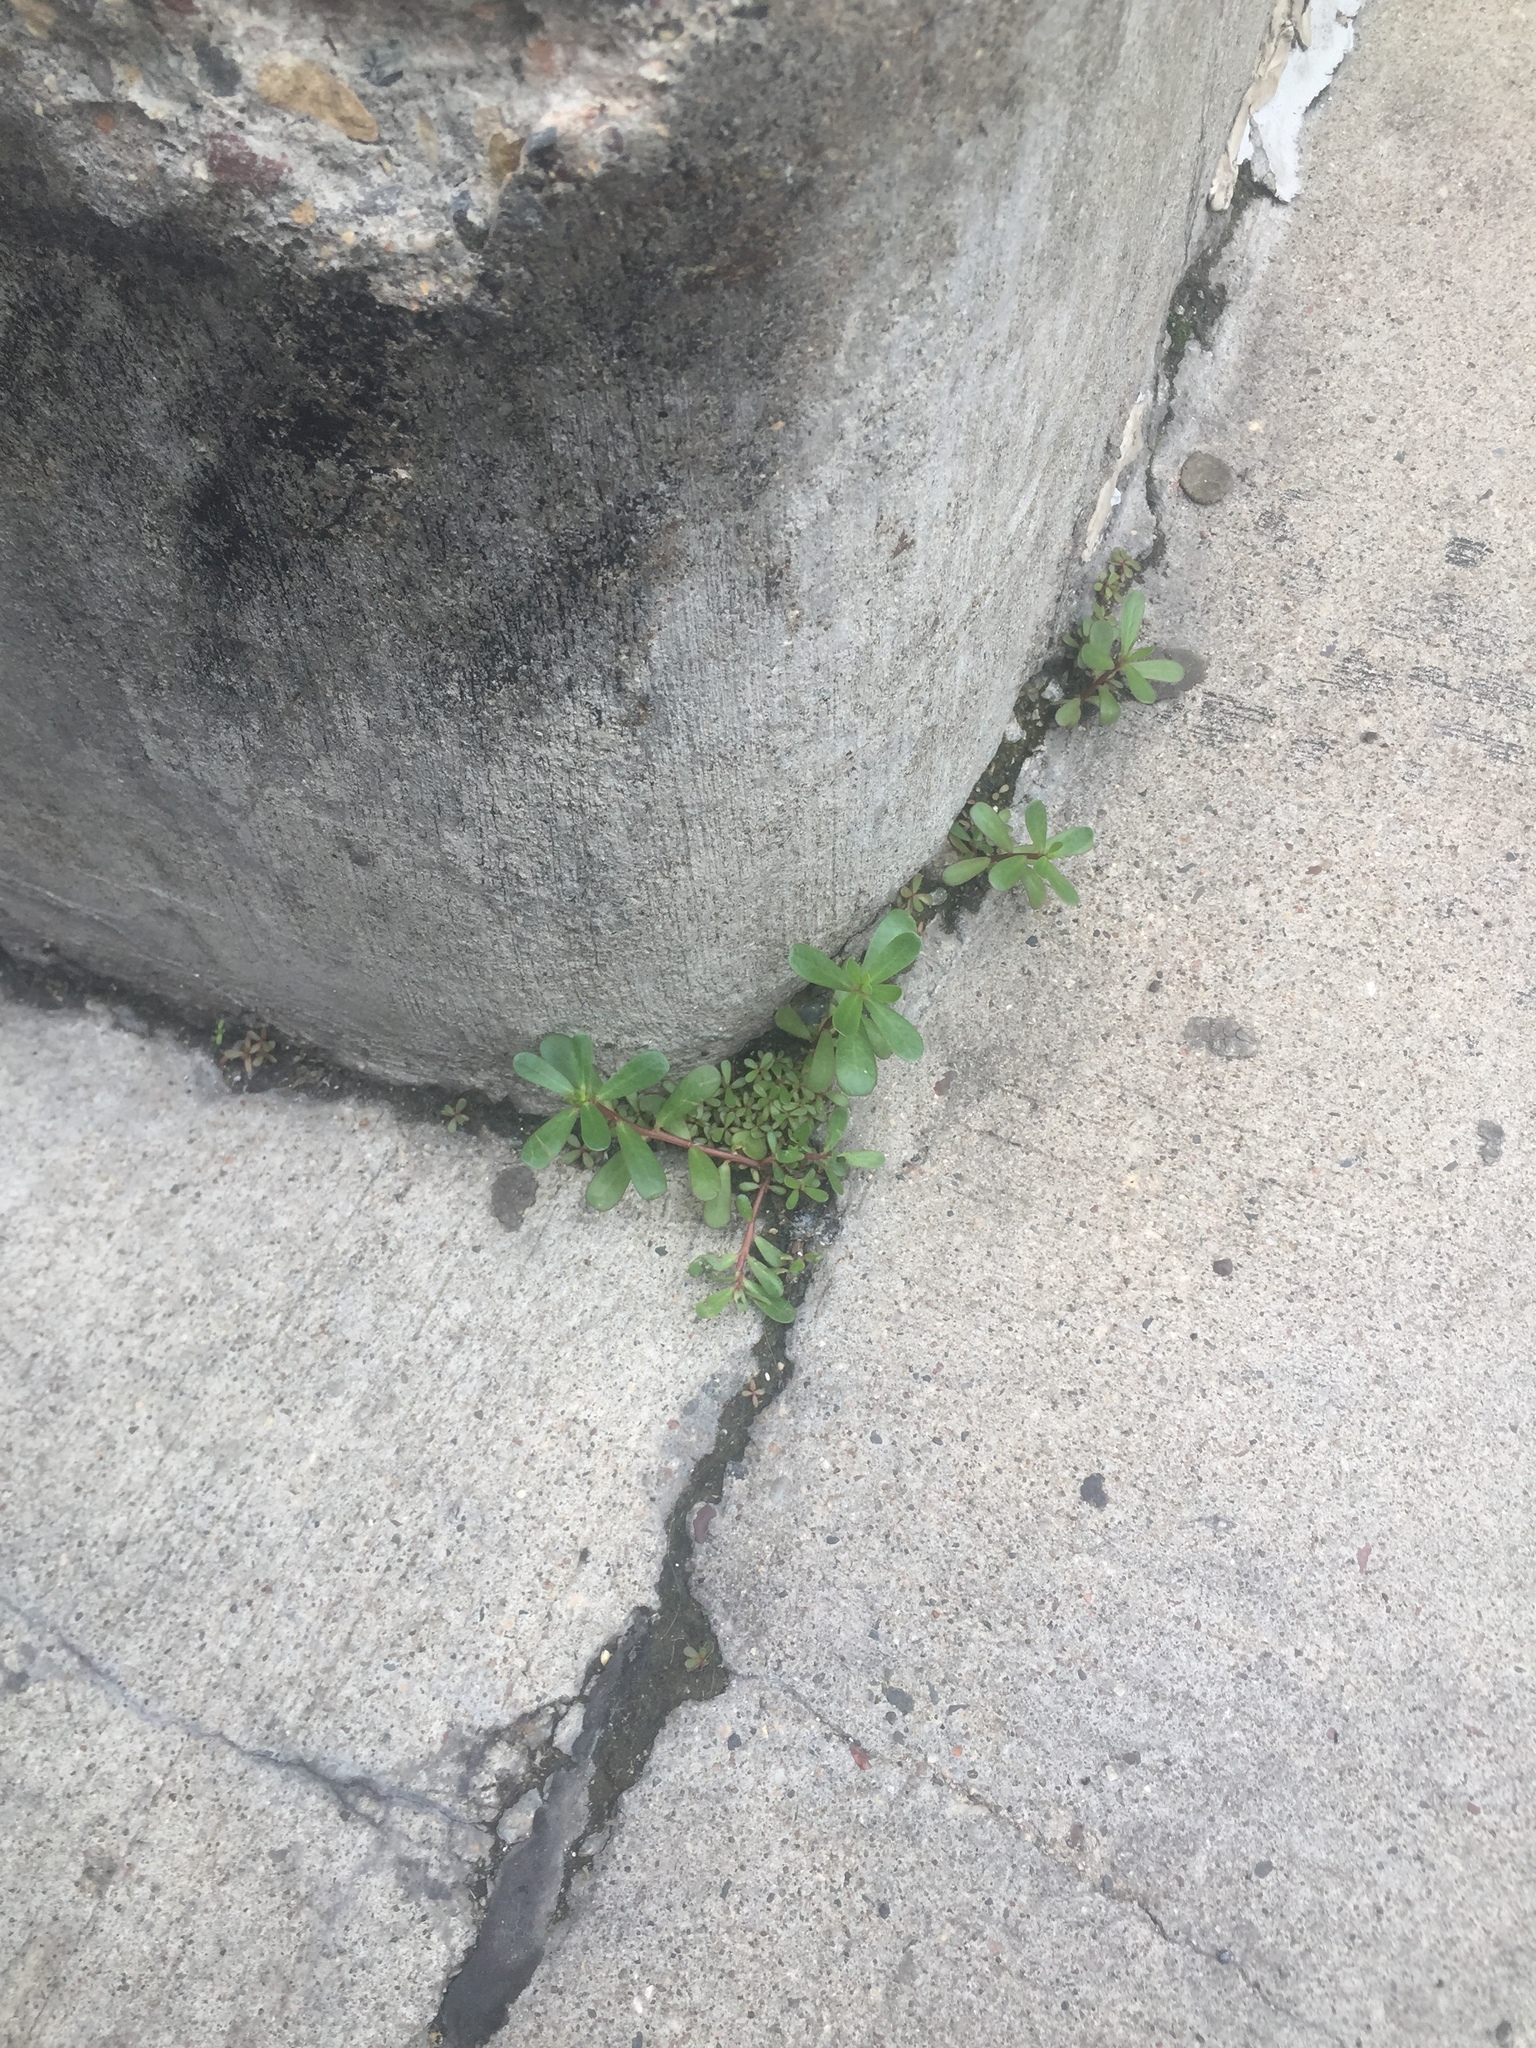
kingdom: Plantae
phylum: Tracheophyta
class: Magnoliopsida
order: Caryophyllales
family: Portulacaceae
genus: Portulaca
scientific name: Portulaca oleracea
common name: Common purslane
